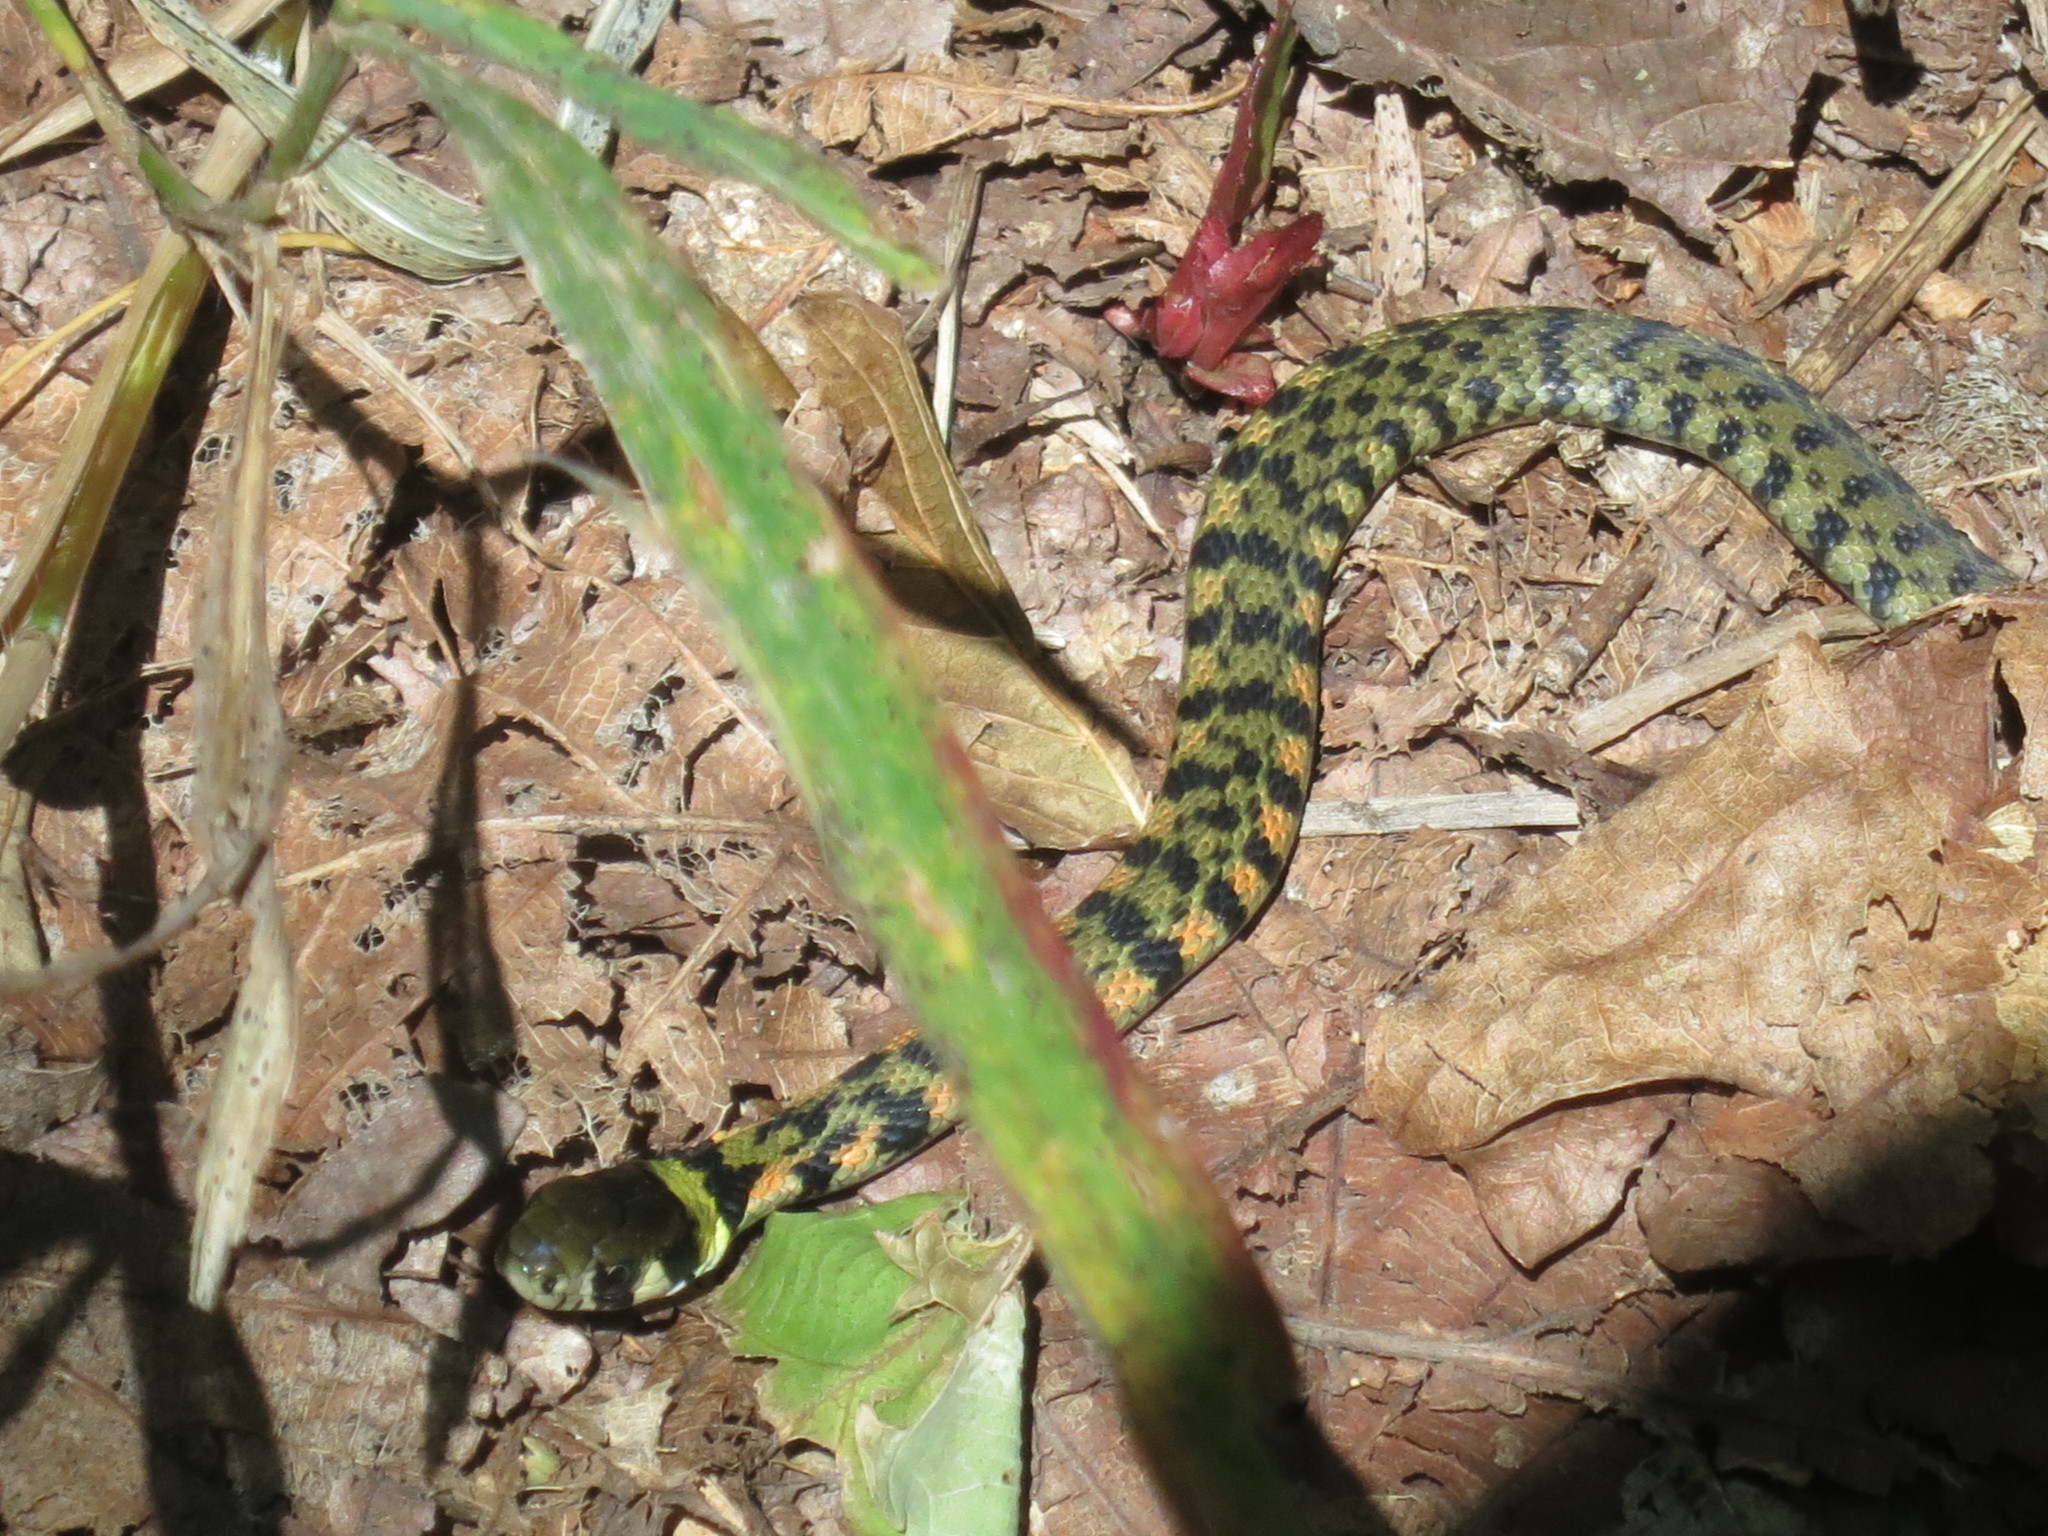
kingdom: Animalia
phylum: Chordata
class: Squamata
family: Colubridae
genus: Rhabdophis
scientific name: Rhabdophis tigrinus
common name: Tiger keelback
